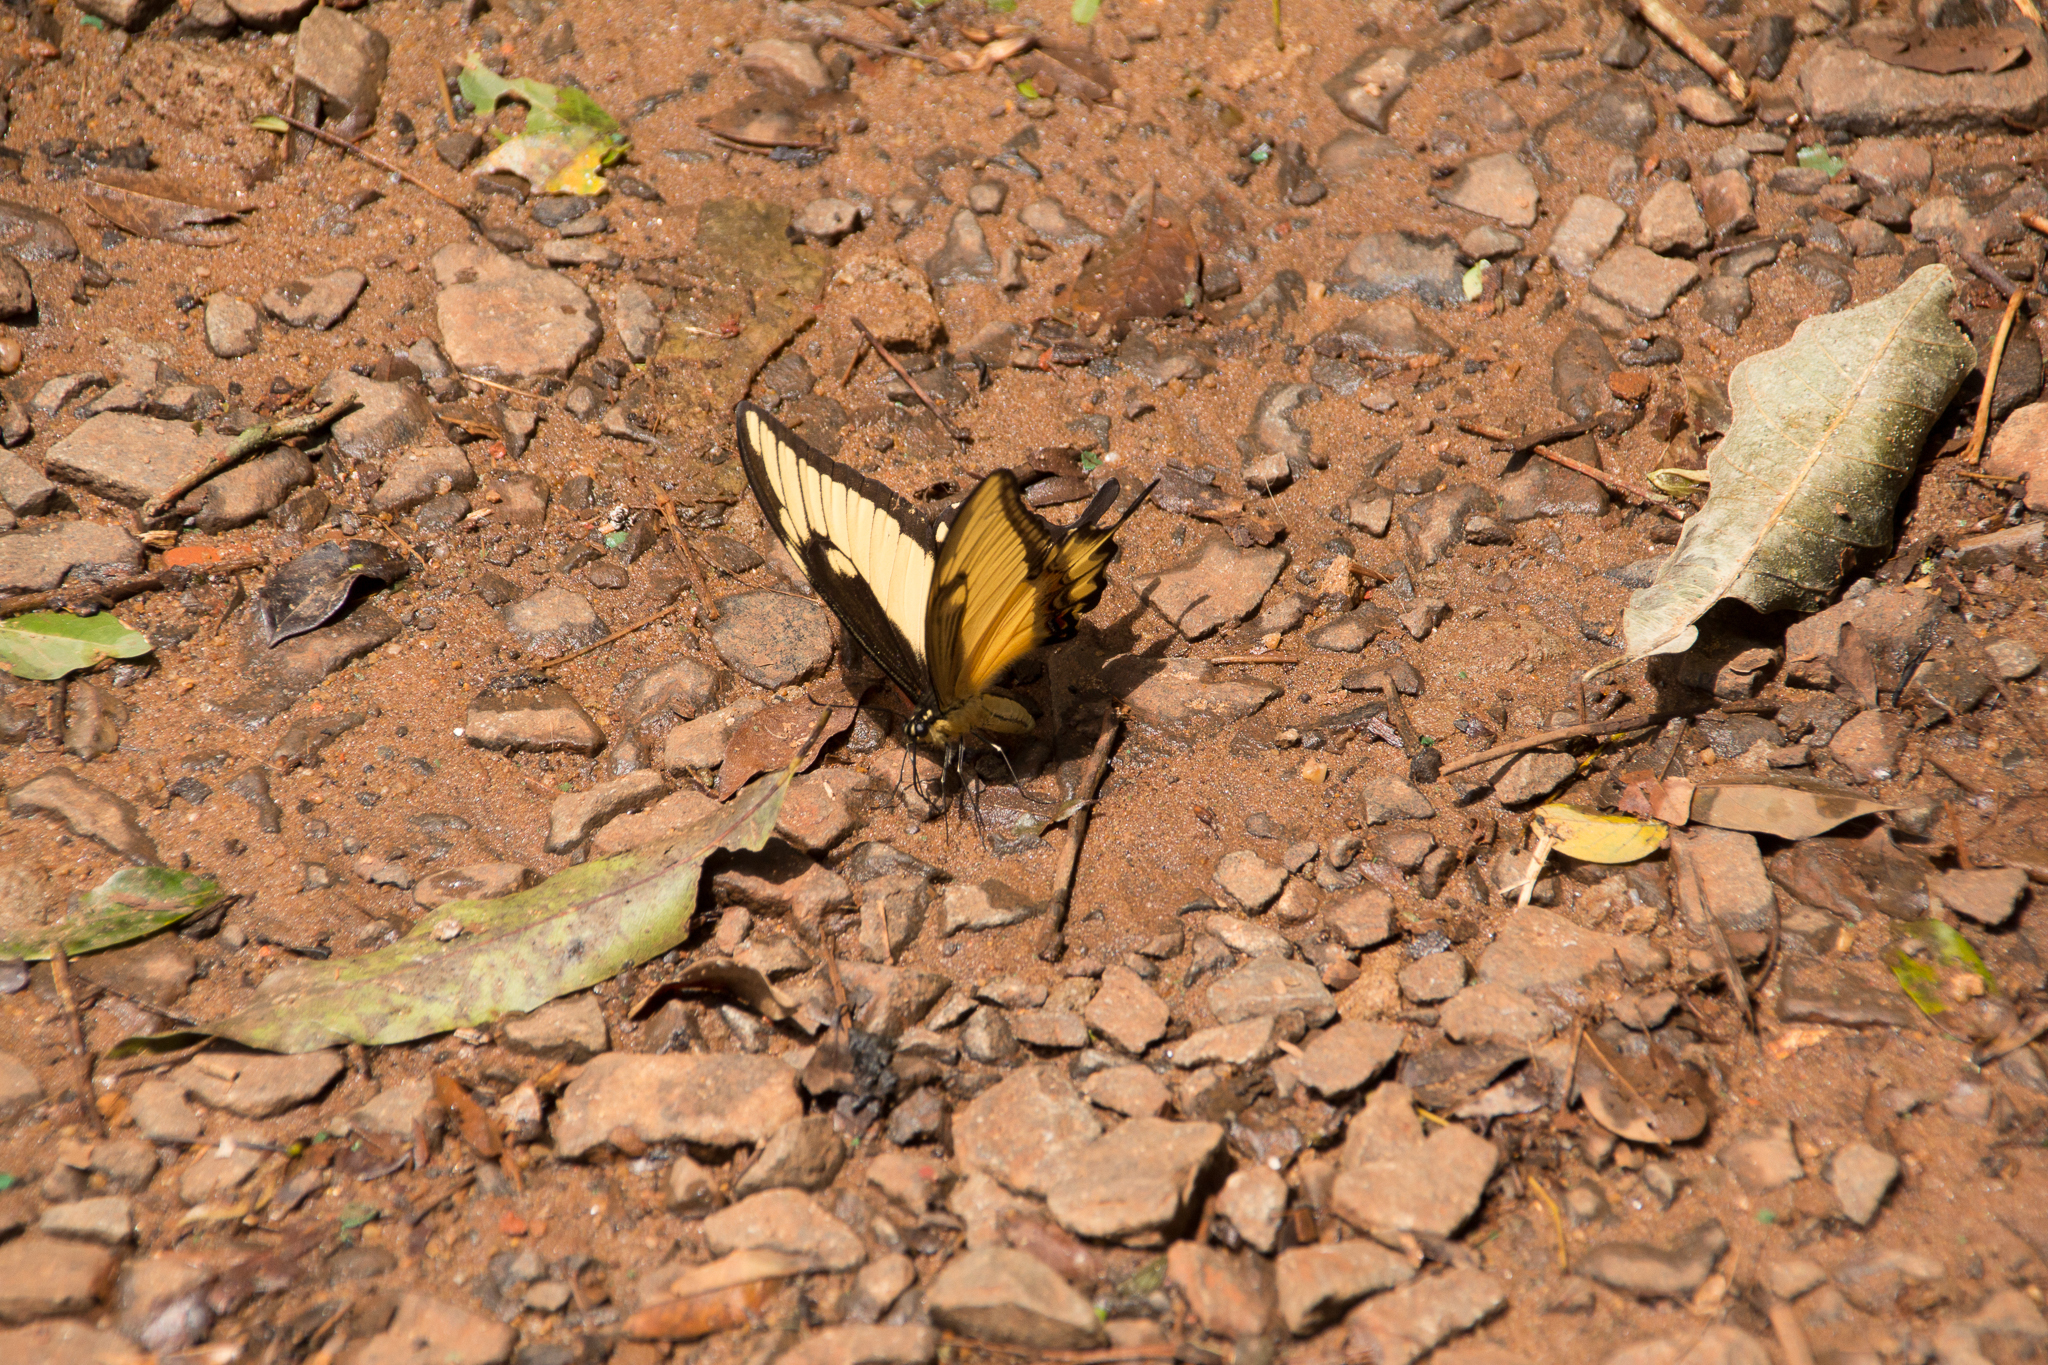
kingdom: Animalia
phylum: Arthropoda
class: Insecta
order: Lepidoptera
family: Papilionidae
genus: Papilio
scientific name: Papilio astyalus
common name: Astyalus swallowtail
